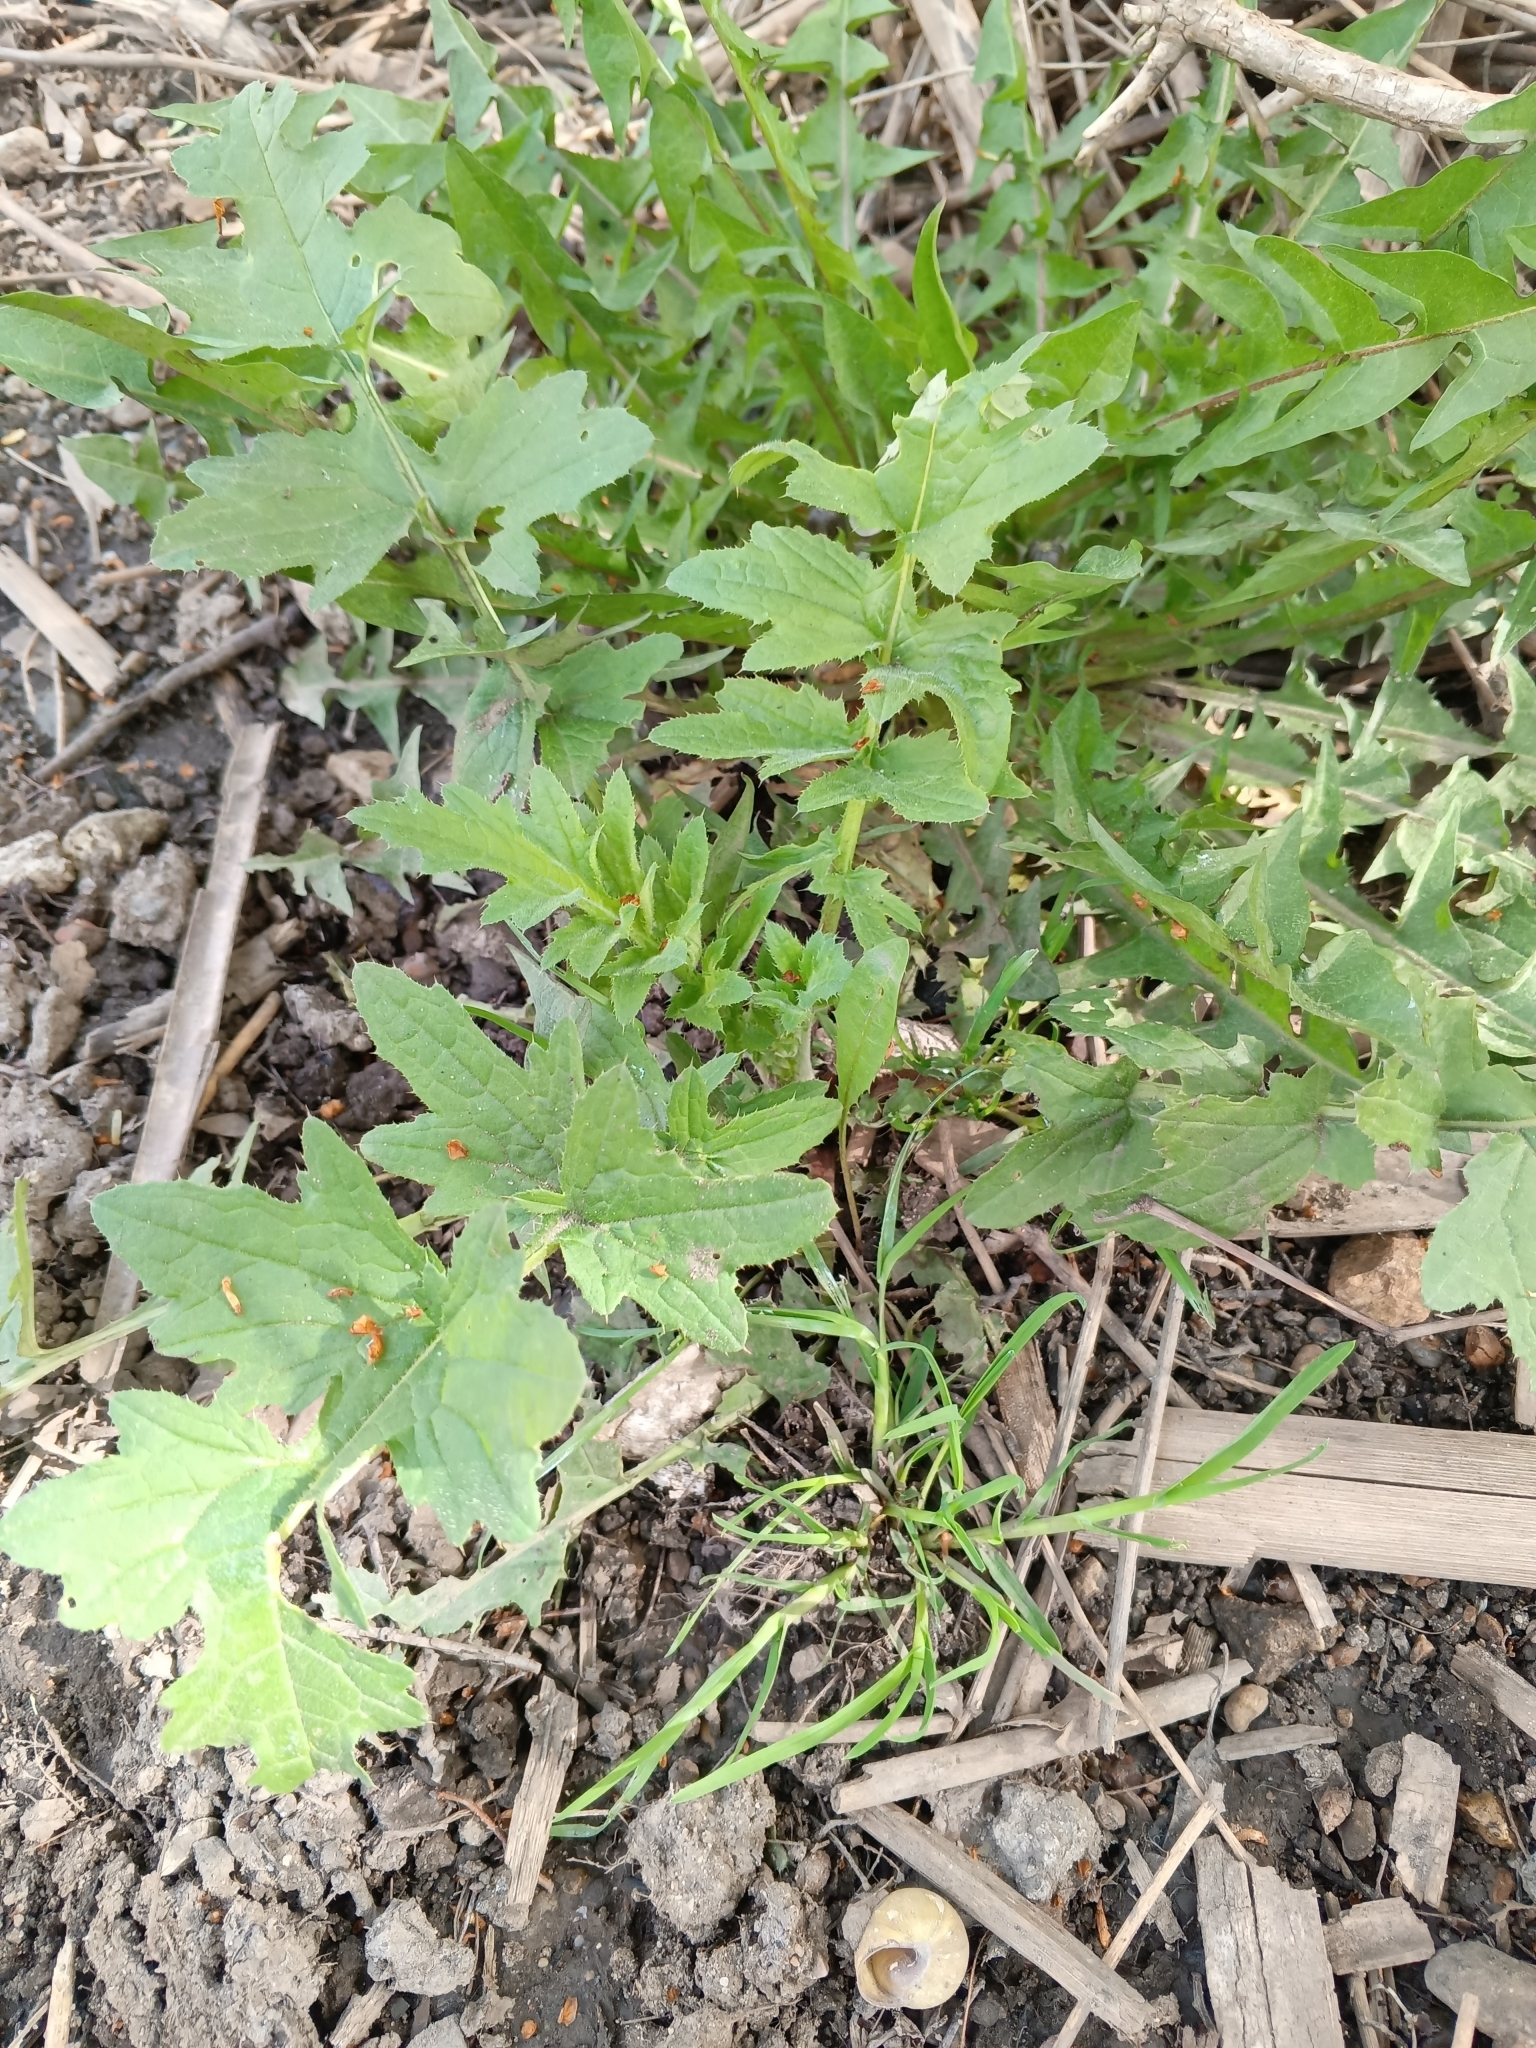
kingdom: Plantae
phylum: Tracheophyta
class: Magnoliopsida
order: Asterales
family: Asteraceae
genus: Carduus
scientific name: Carduus crispus
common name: Welted thistle
